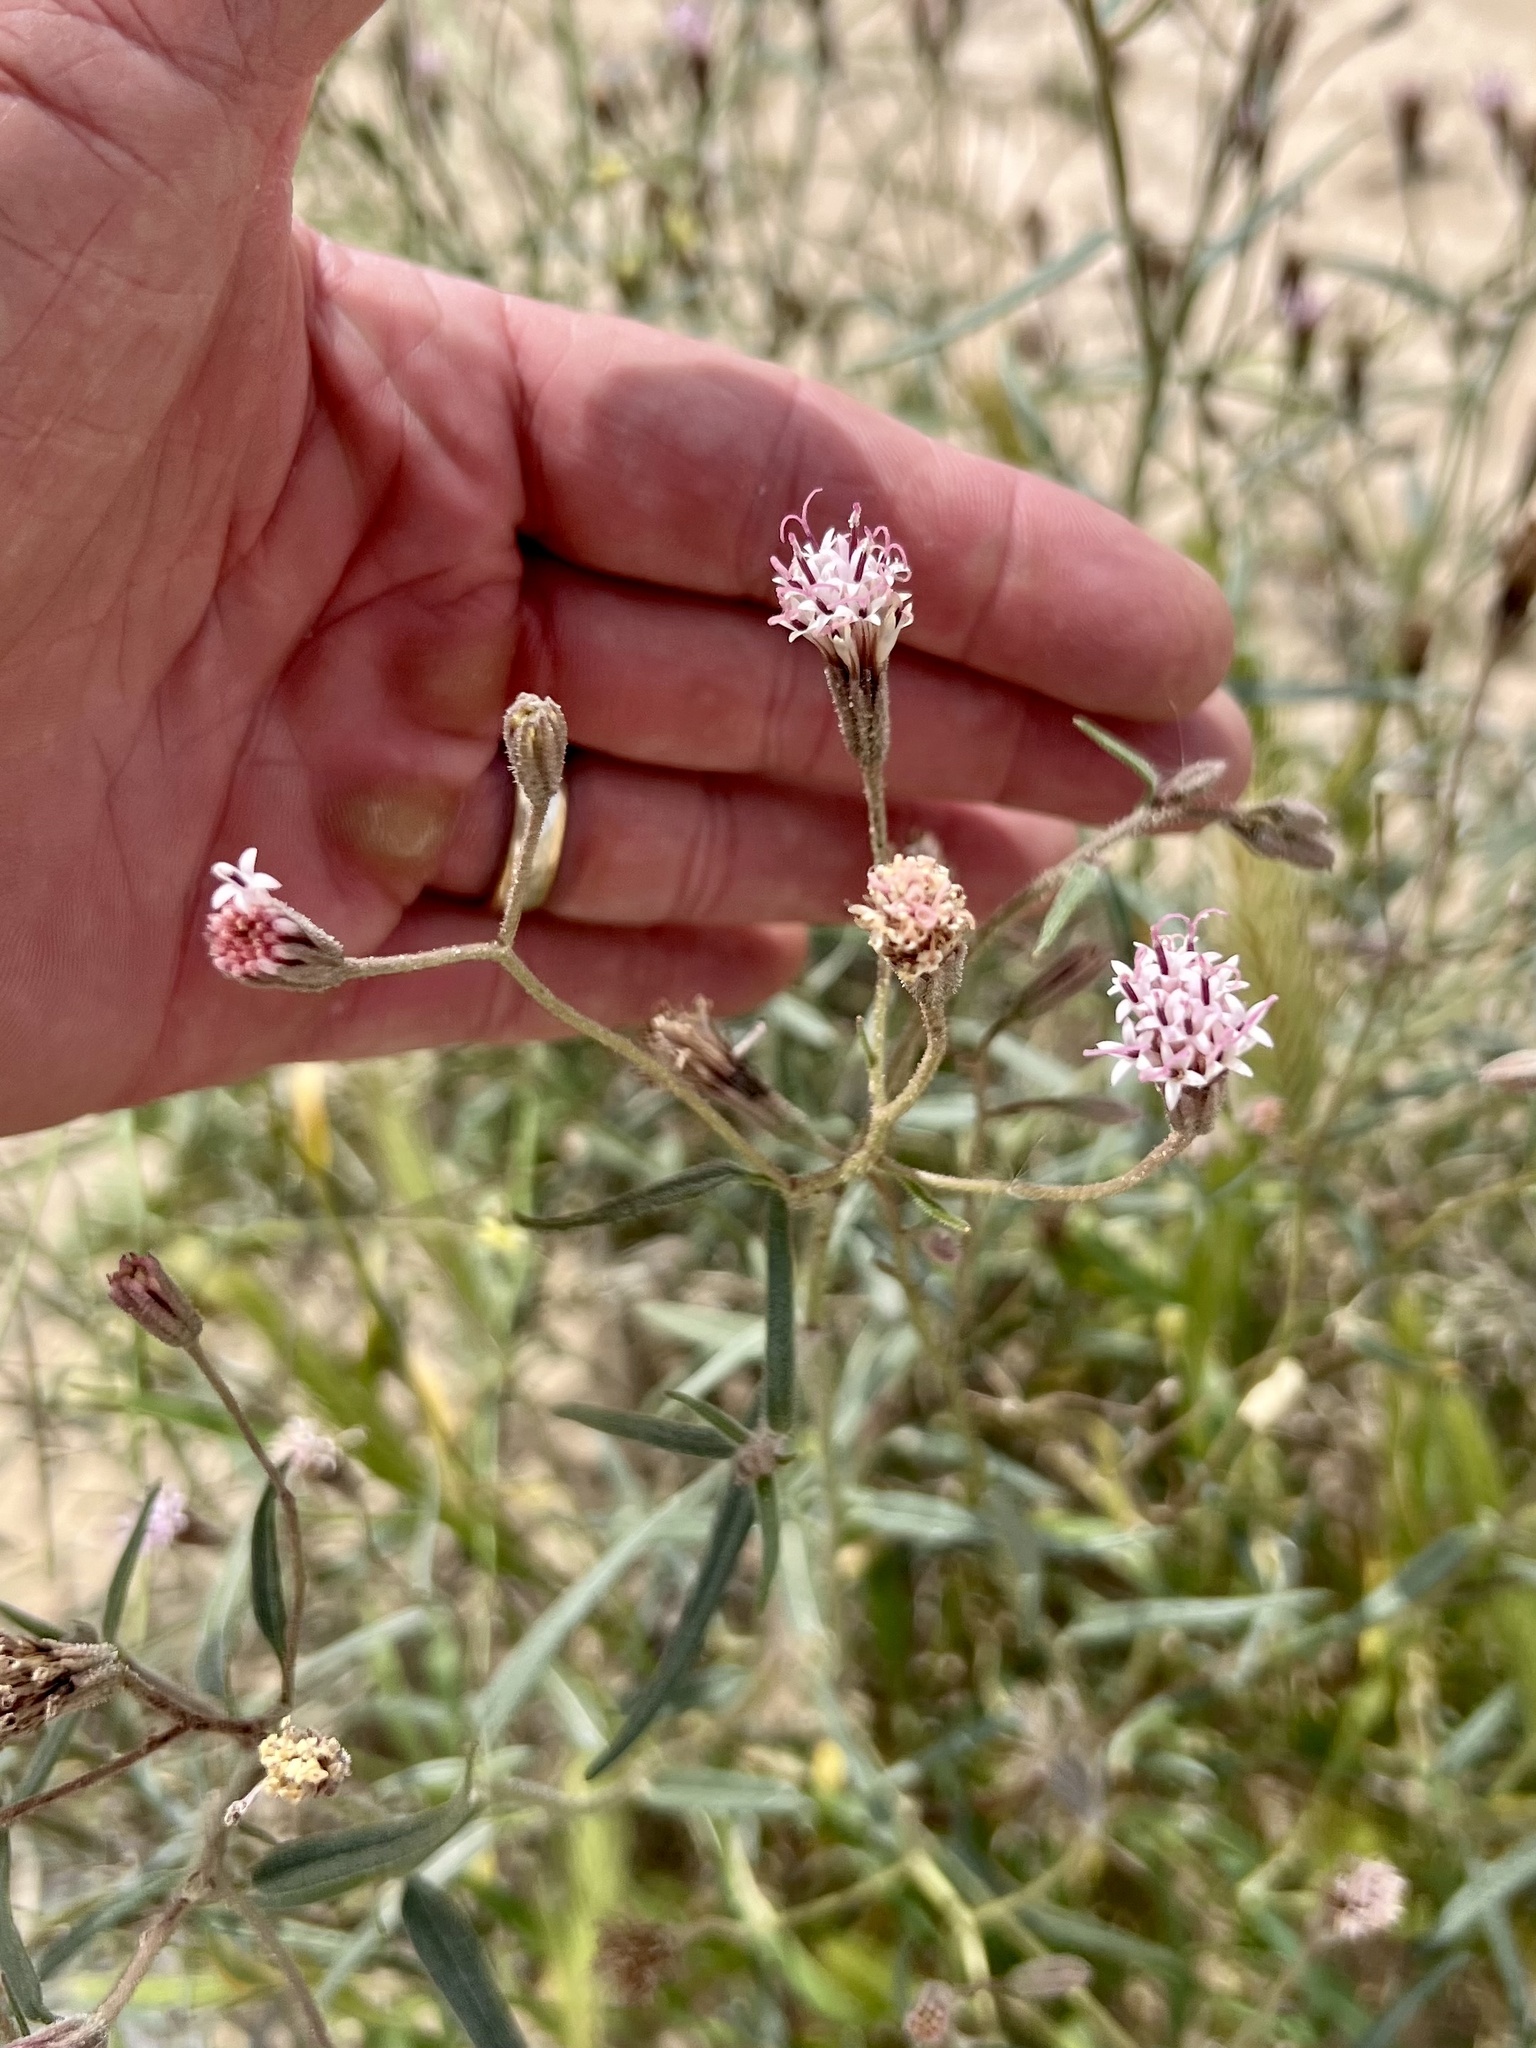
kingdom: Plantae
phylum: Tracheophyta
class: Magnoliopsida
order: Asterales
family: Asteraceae
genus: Palafoxia
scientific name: Palafoxia arida
